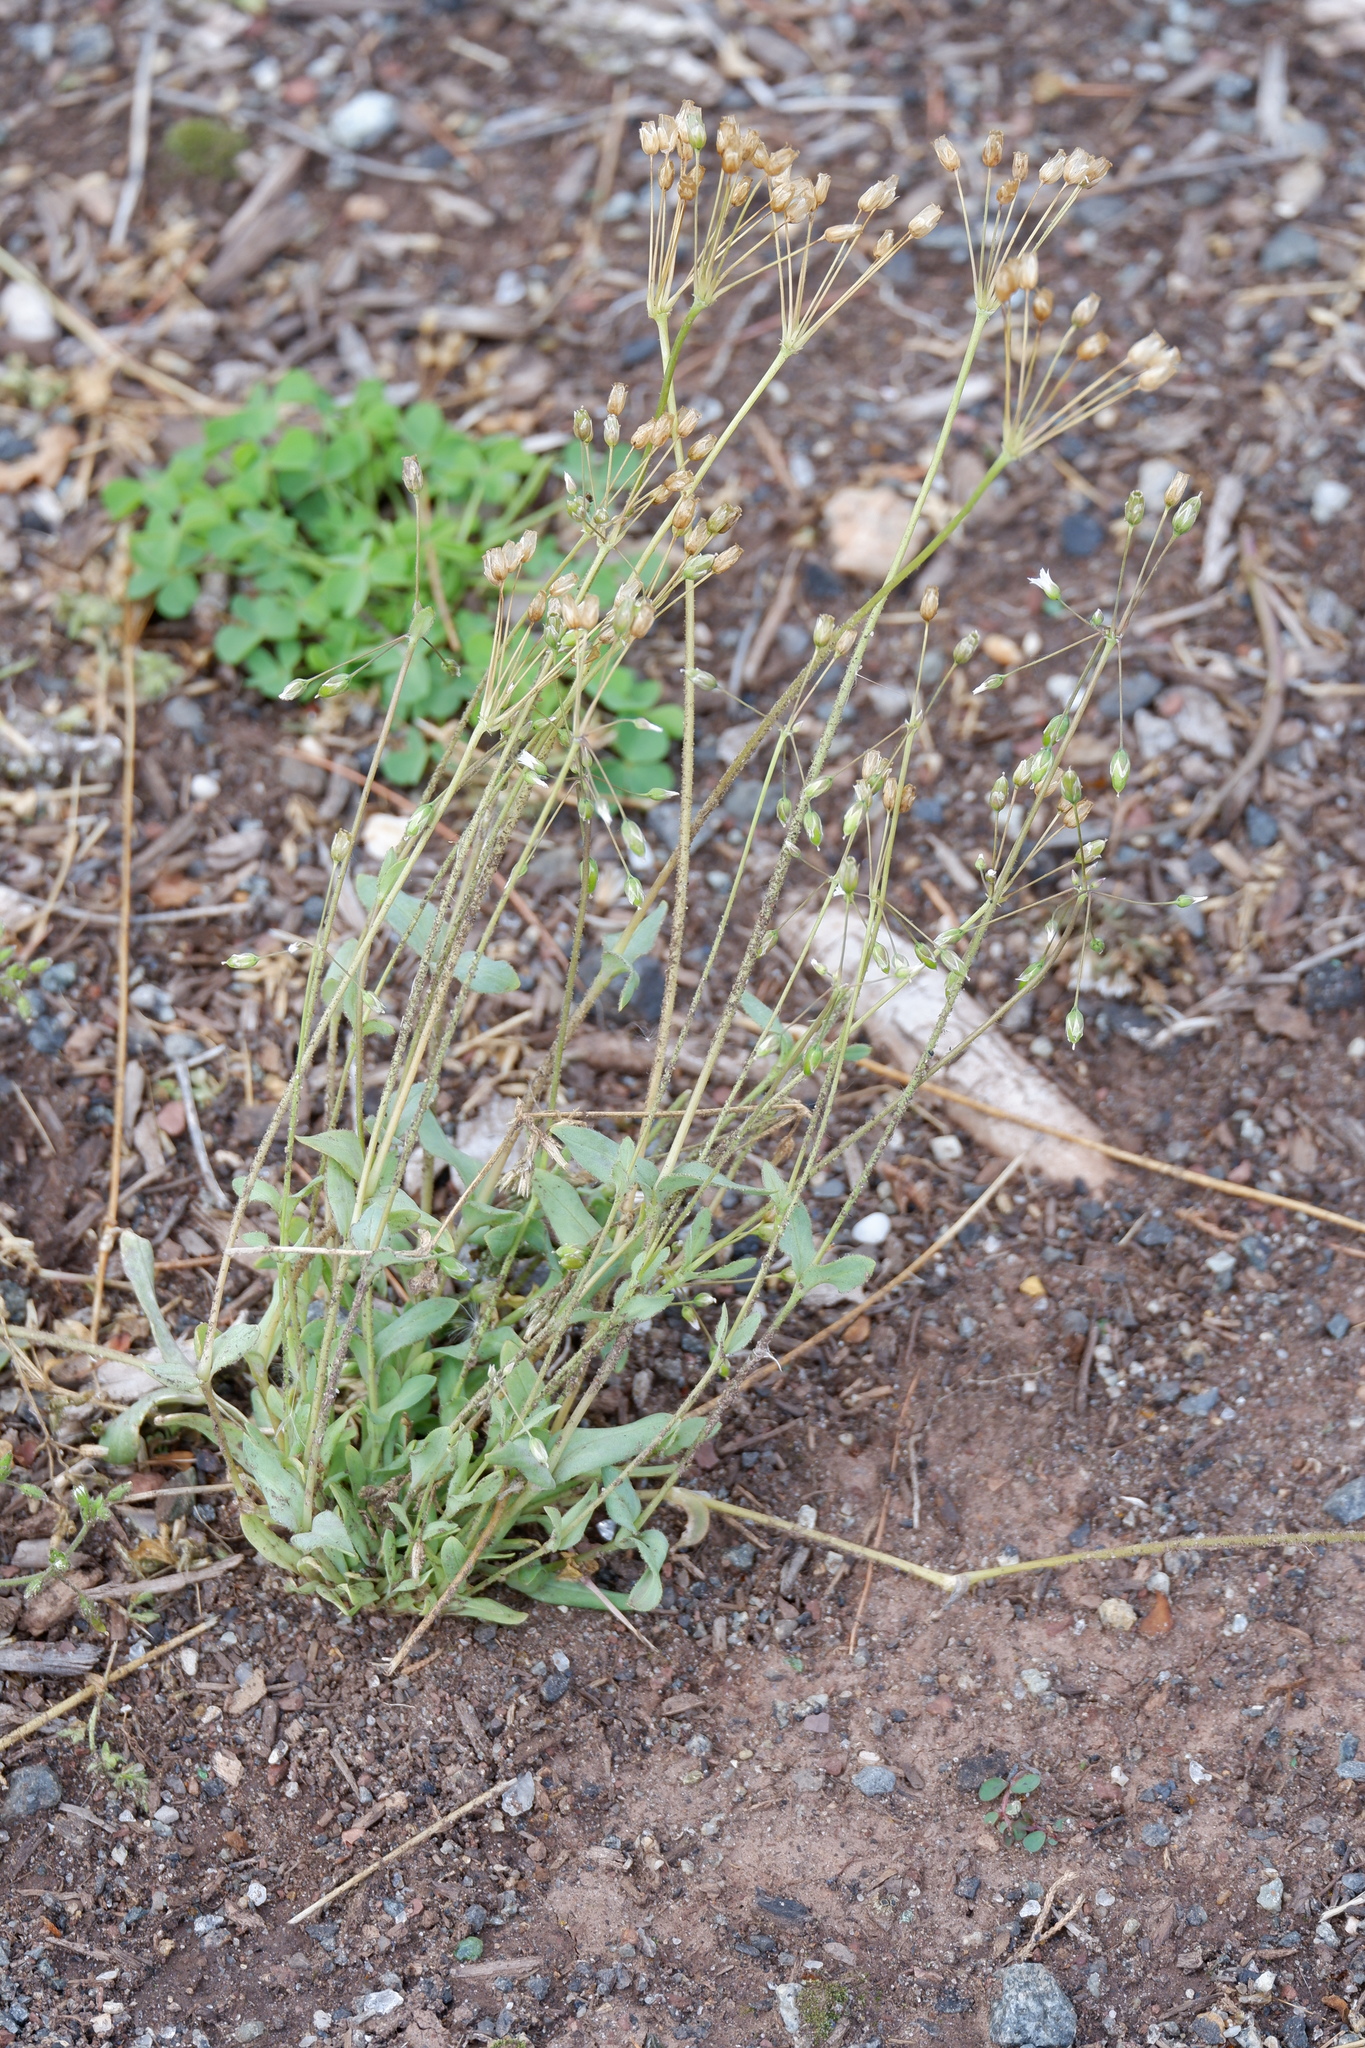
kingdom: Plantae
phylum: Tracheophyta
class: Magnoliopsida
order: Caryophyllales
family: Caryophyllaceae
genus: Holosteum
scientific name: Holosteum umbellatum
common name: Jagged chickweed
